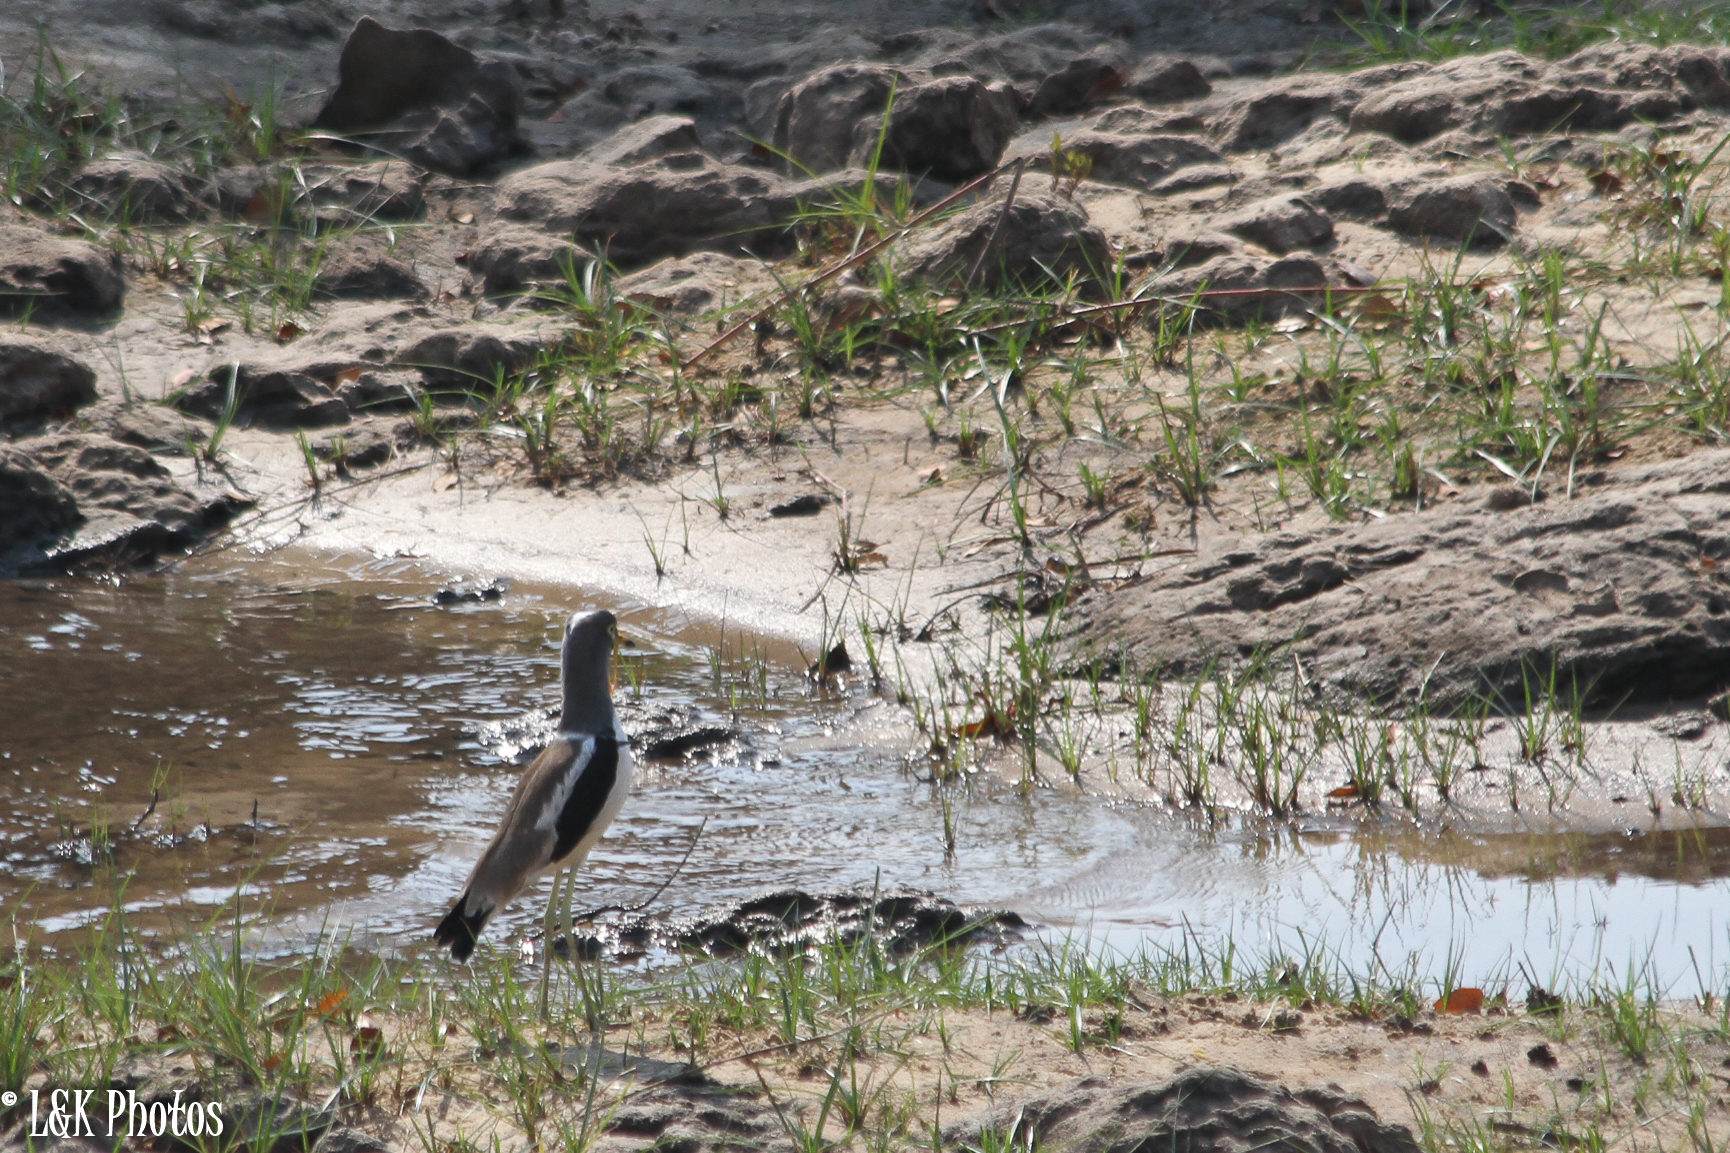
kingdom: Animalia
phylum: Chordata
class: Aves
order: Charadriiformes
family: Charadriidae
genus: Vanellus
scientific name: Vanellus albiceps
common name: White-crowned lapwing
